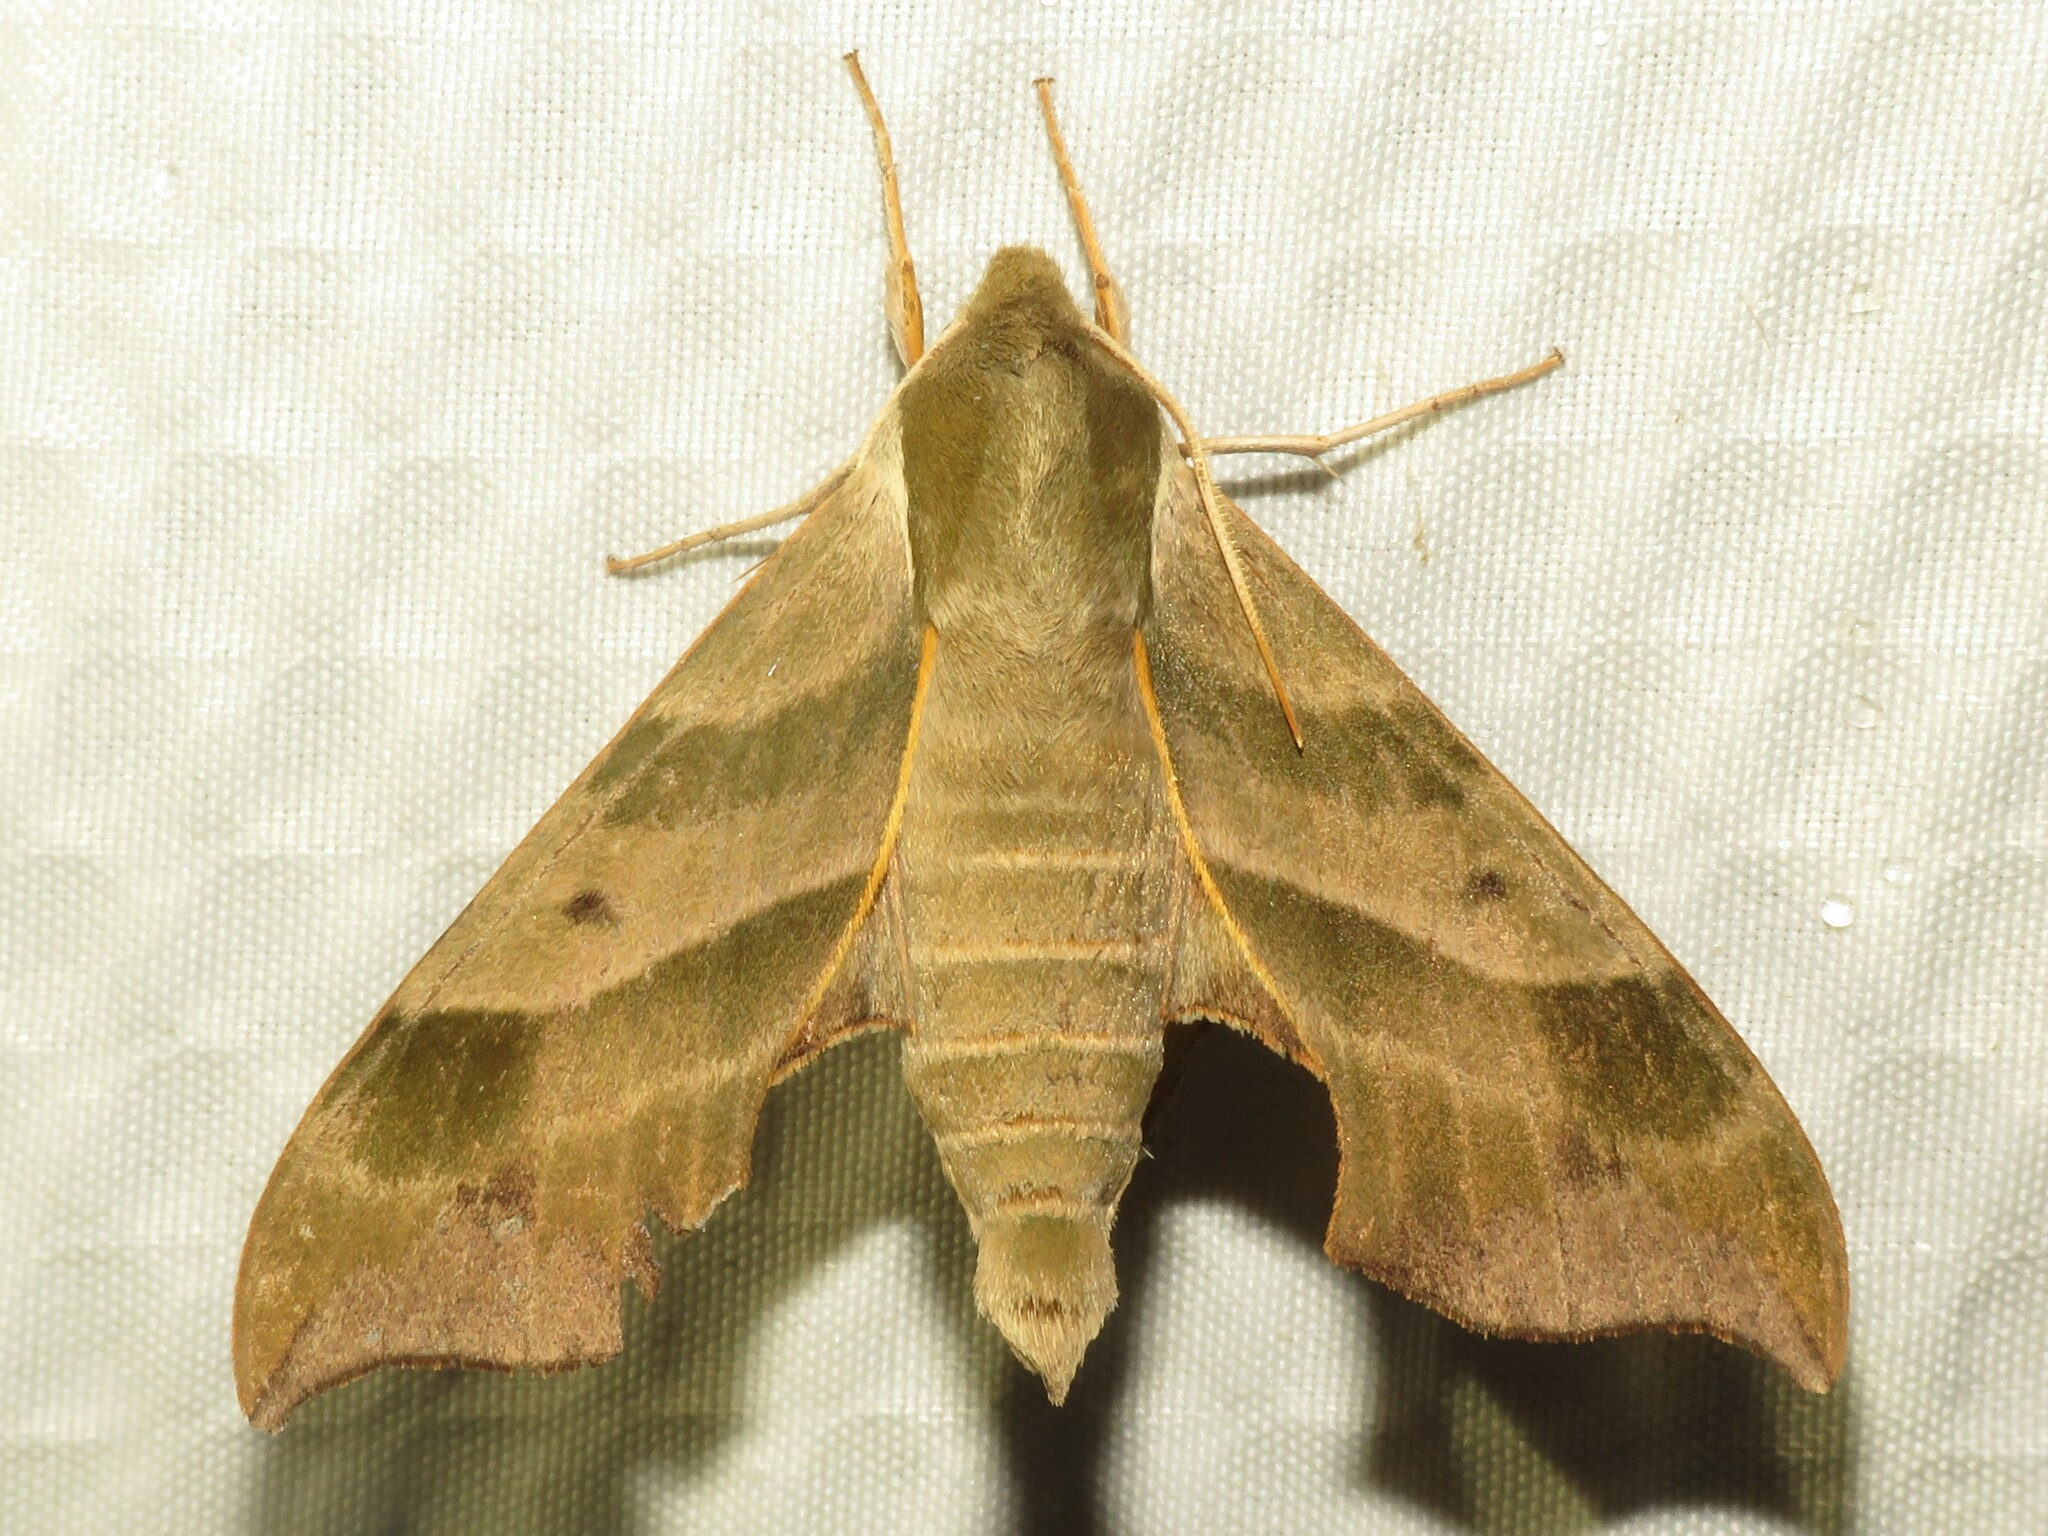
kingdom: Animalia
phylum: Arthropoda
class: Insecta
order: Lepidoptera
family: Sphingidae
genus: Darapsa
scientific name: Darapsa myron
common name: Hog sphinx
